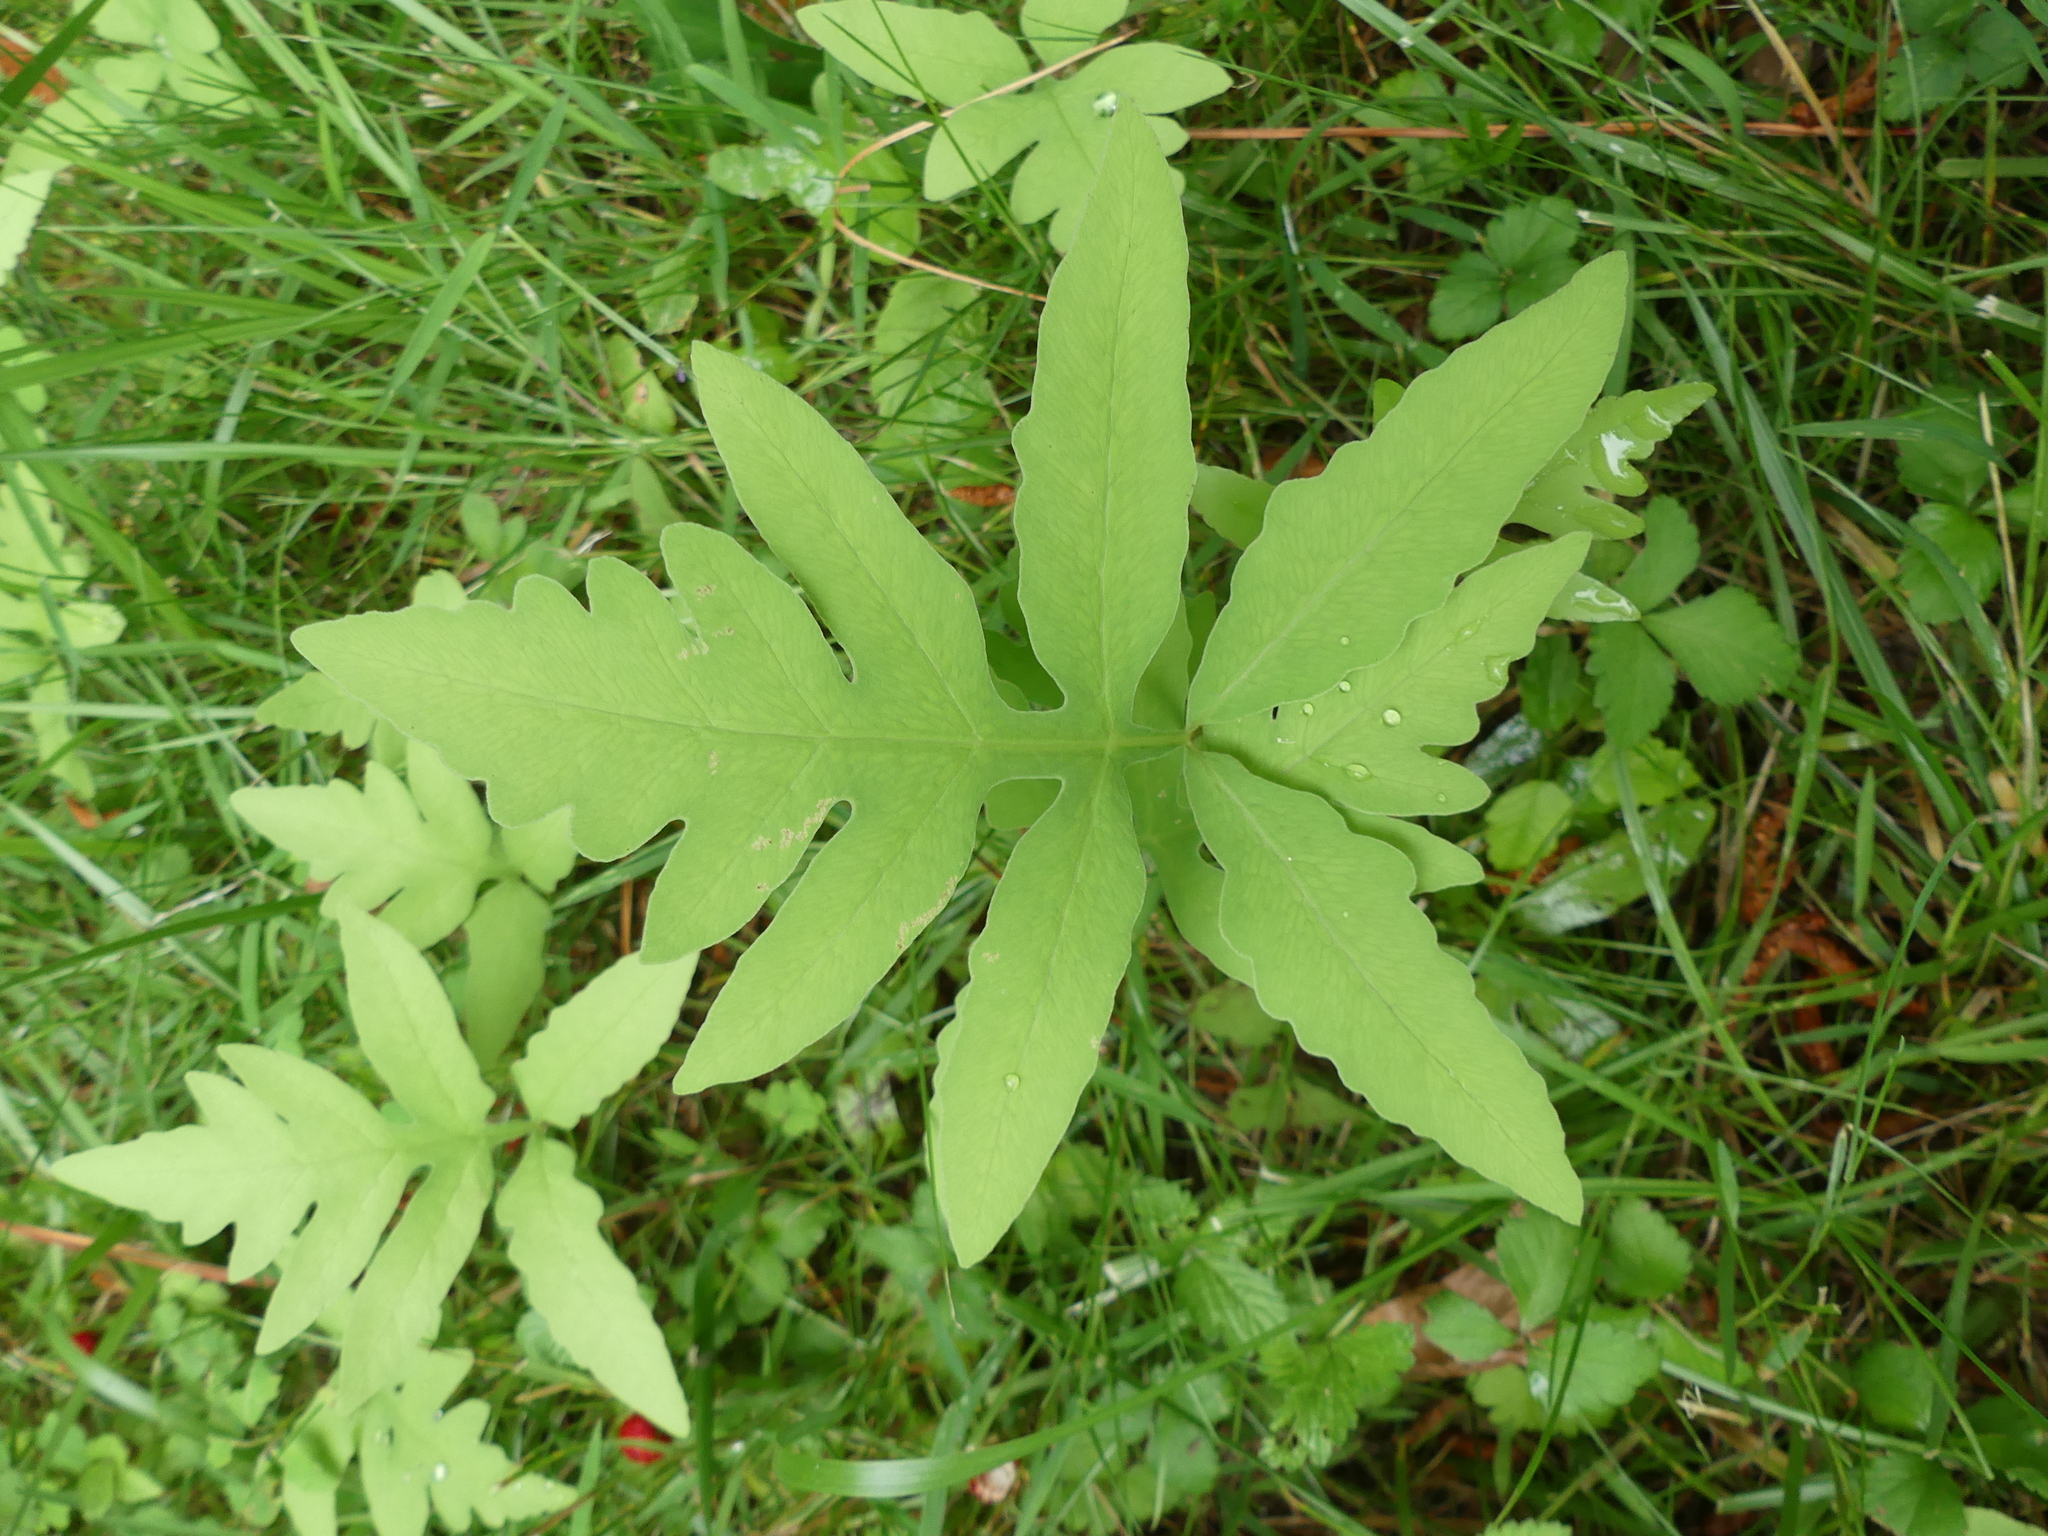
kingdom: Plantae
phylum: Tracheophyta
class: Polypodiopsida
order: Polypodiales
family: Onocleaceae
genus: Onoclea
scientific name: Onoclea sensibilis
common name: Sensitive fern
